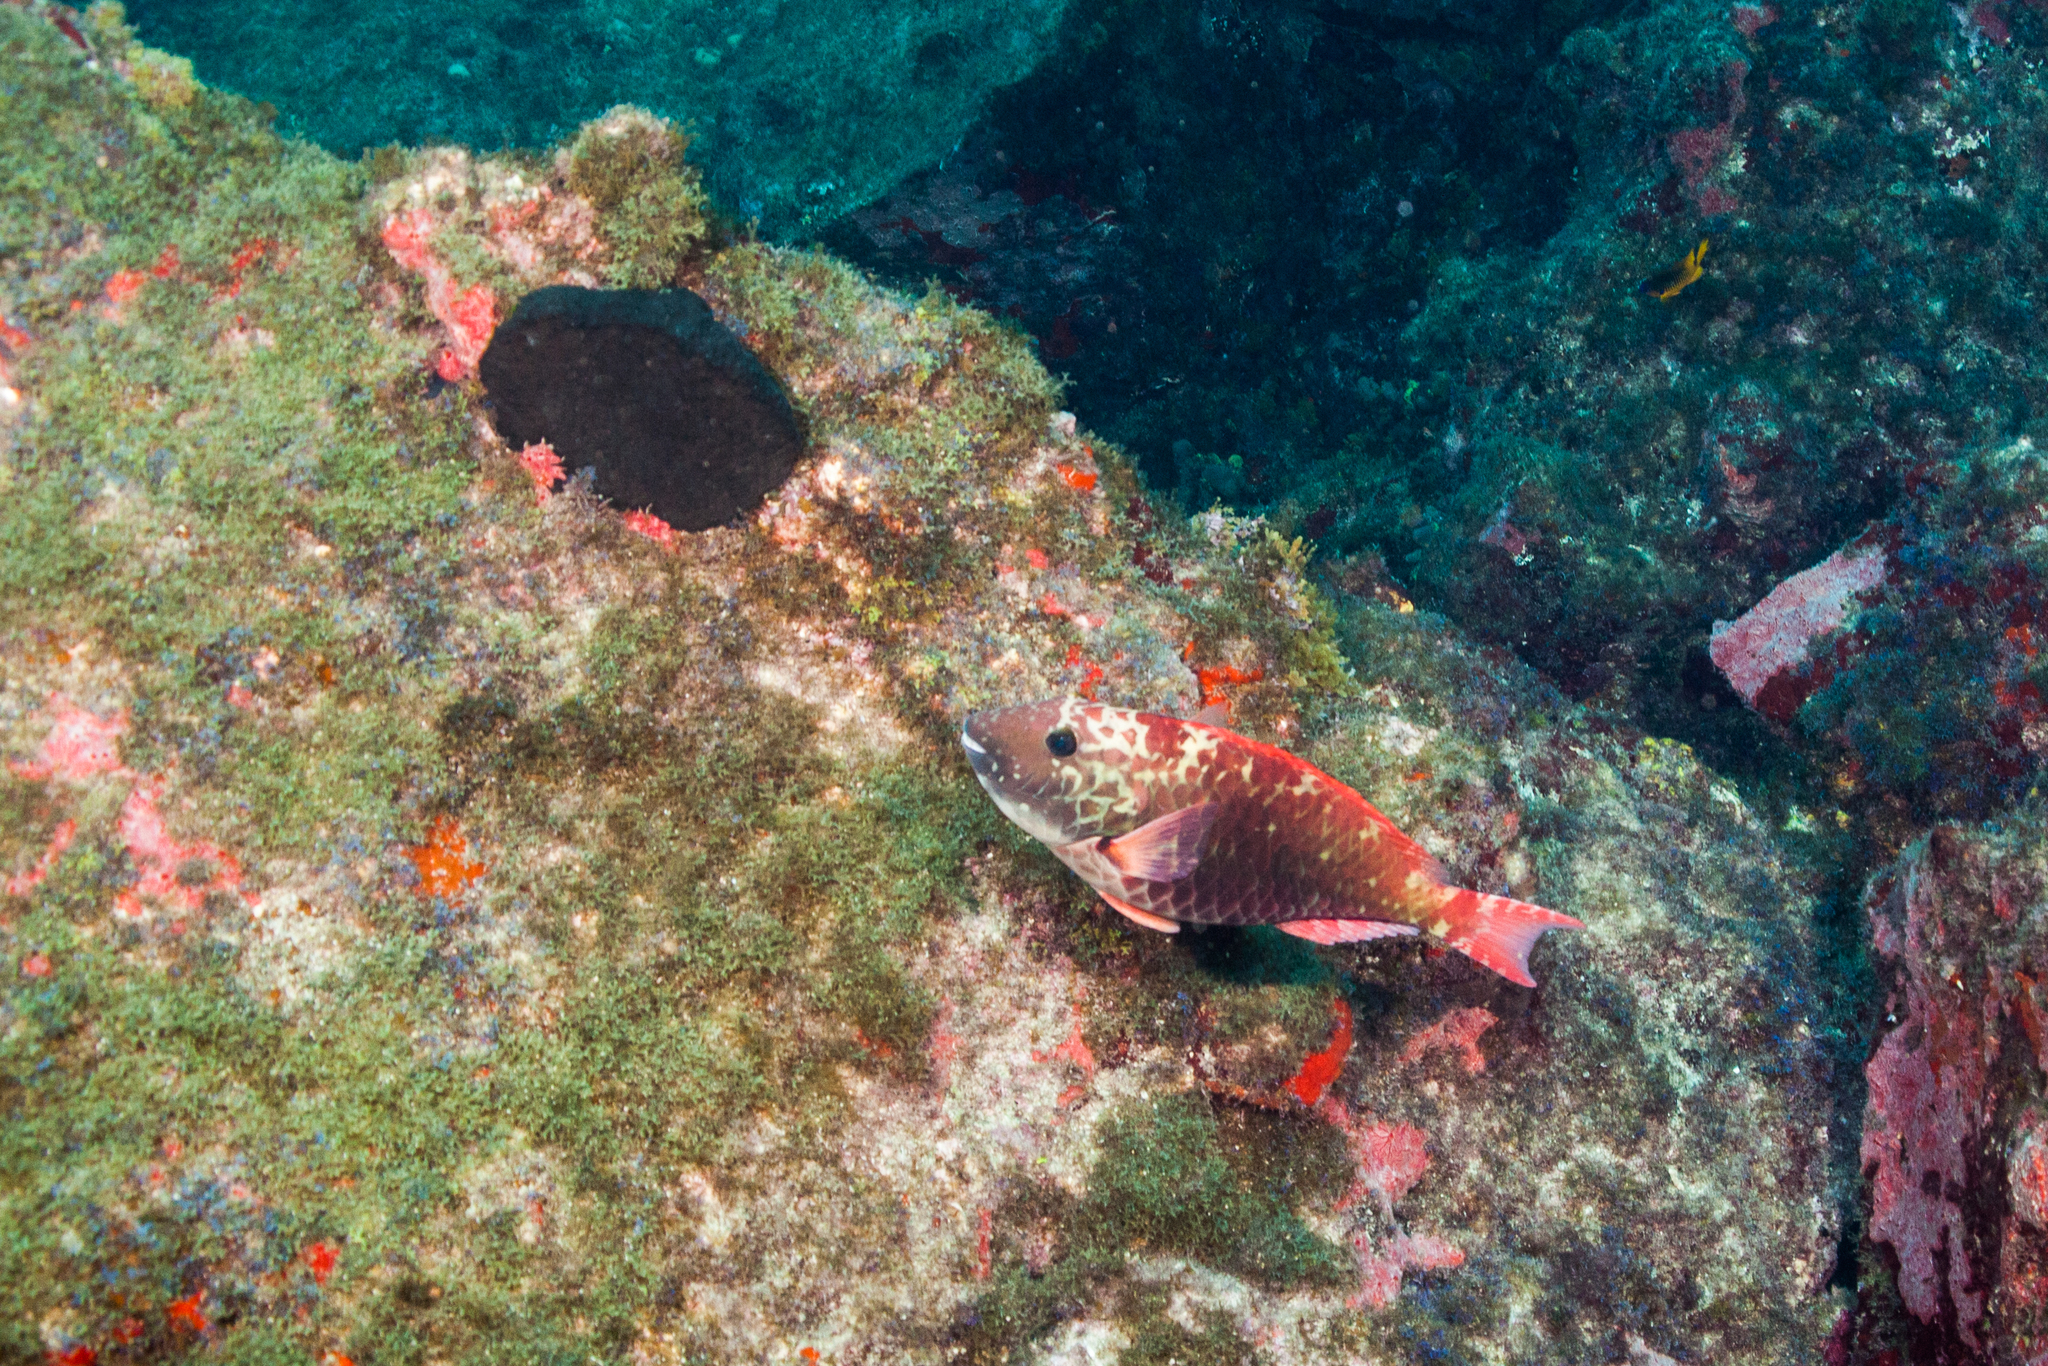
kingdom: Animalia
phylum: Chordata
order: Perciformes
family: Scaridae
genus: Sparisoma
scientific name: Sparisoma frondosum
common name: Agassiz's parrotfish
